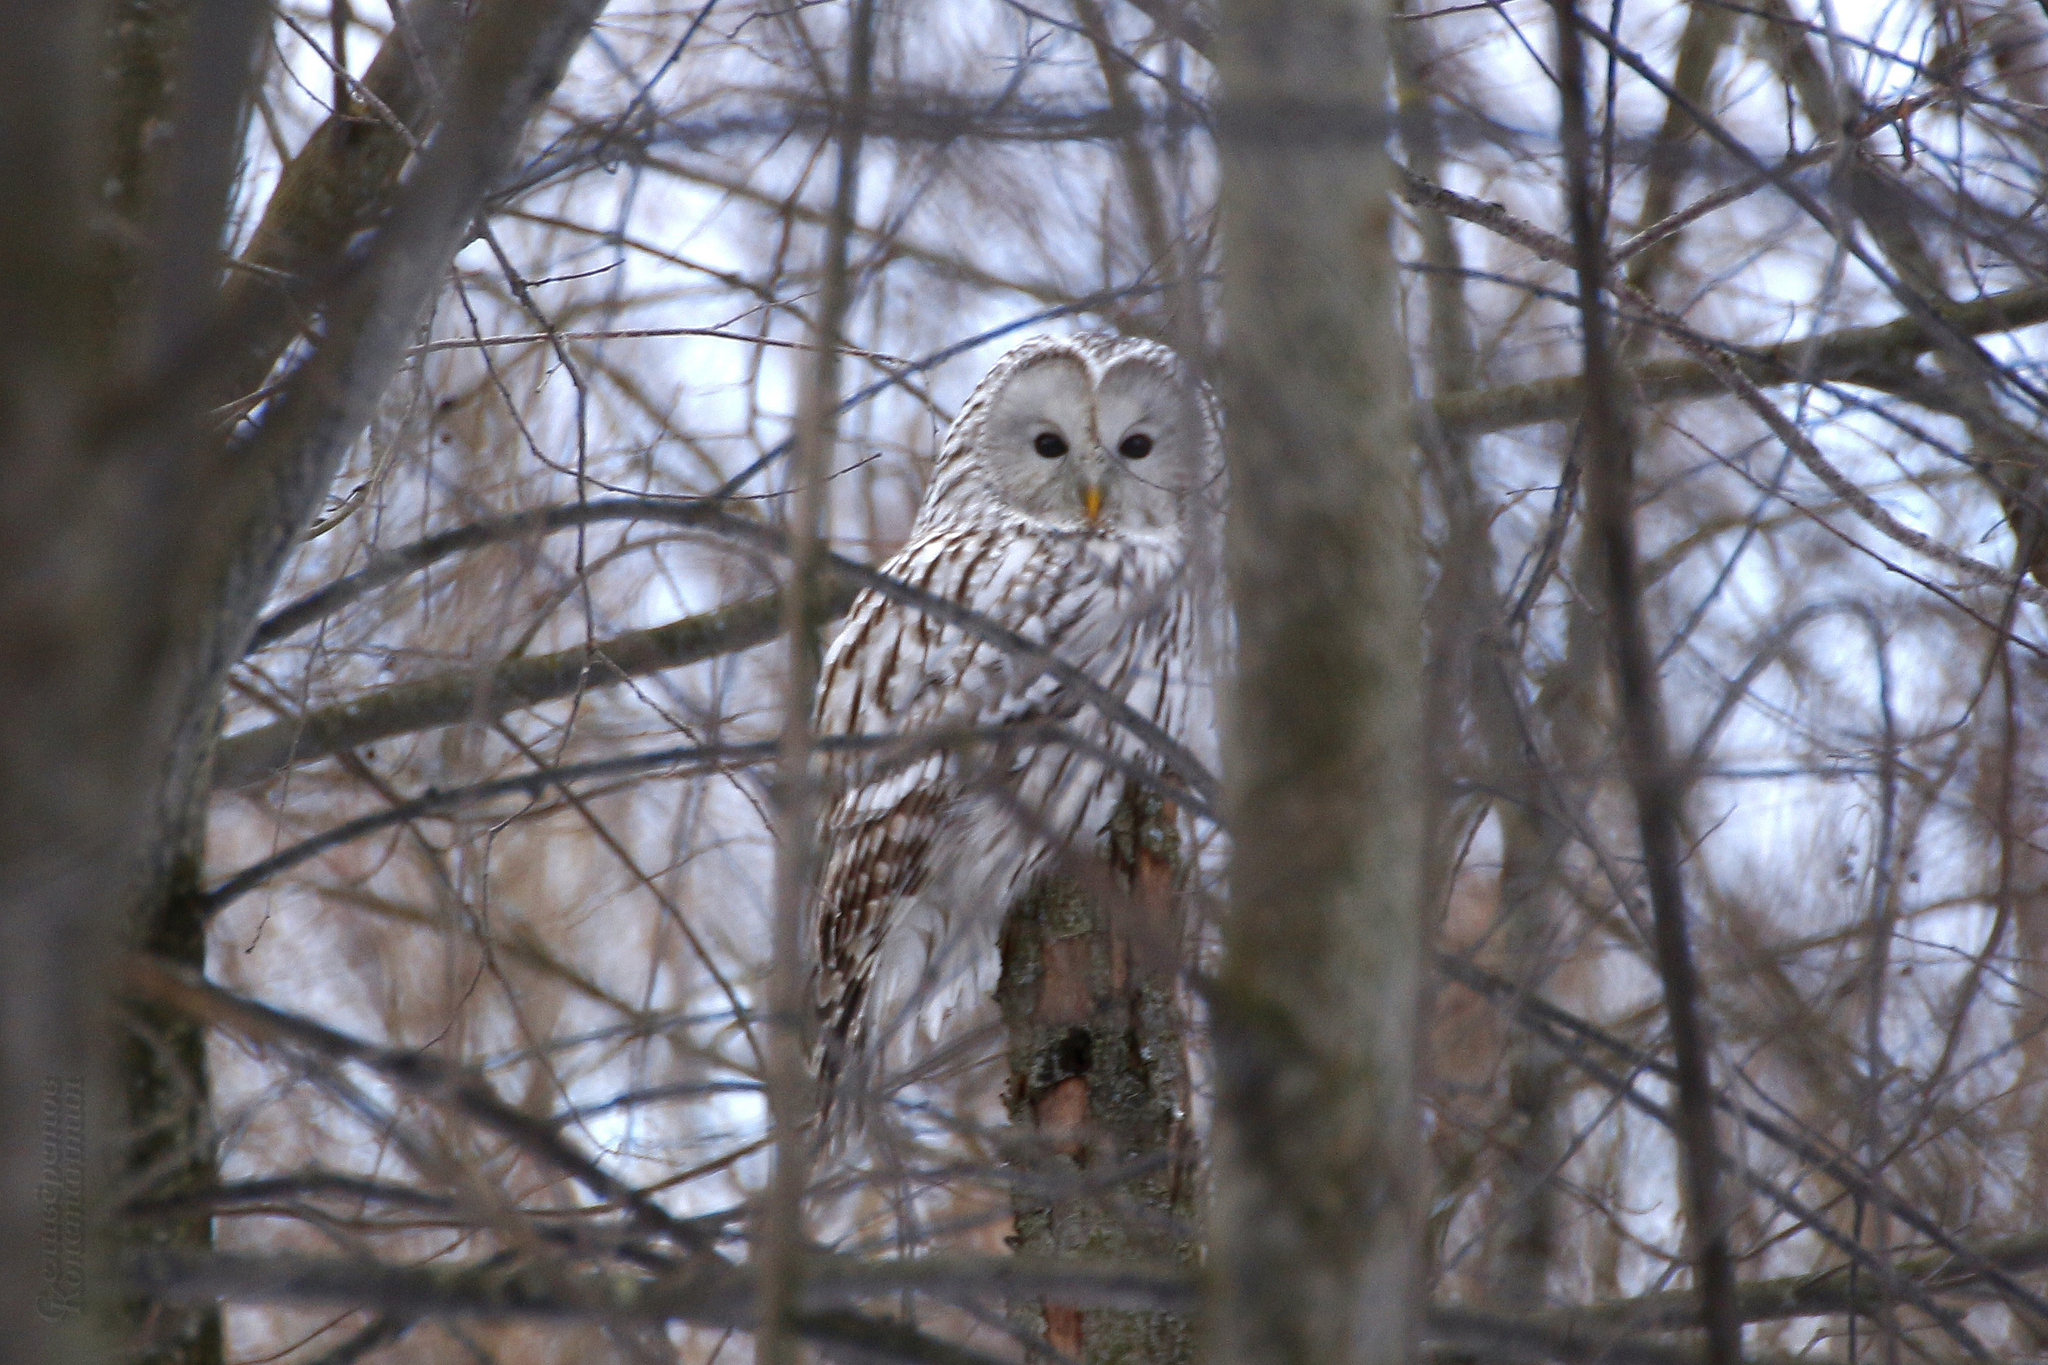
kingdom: Animalia
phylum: Chordata
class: Aves
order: Strigiformes
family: Strigidae
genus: Strix
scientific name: Strix uralensis
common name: Ural owl
